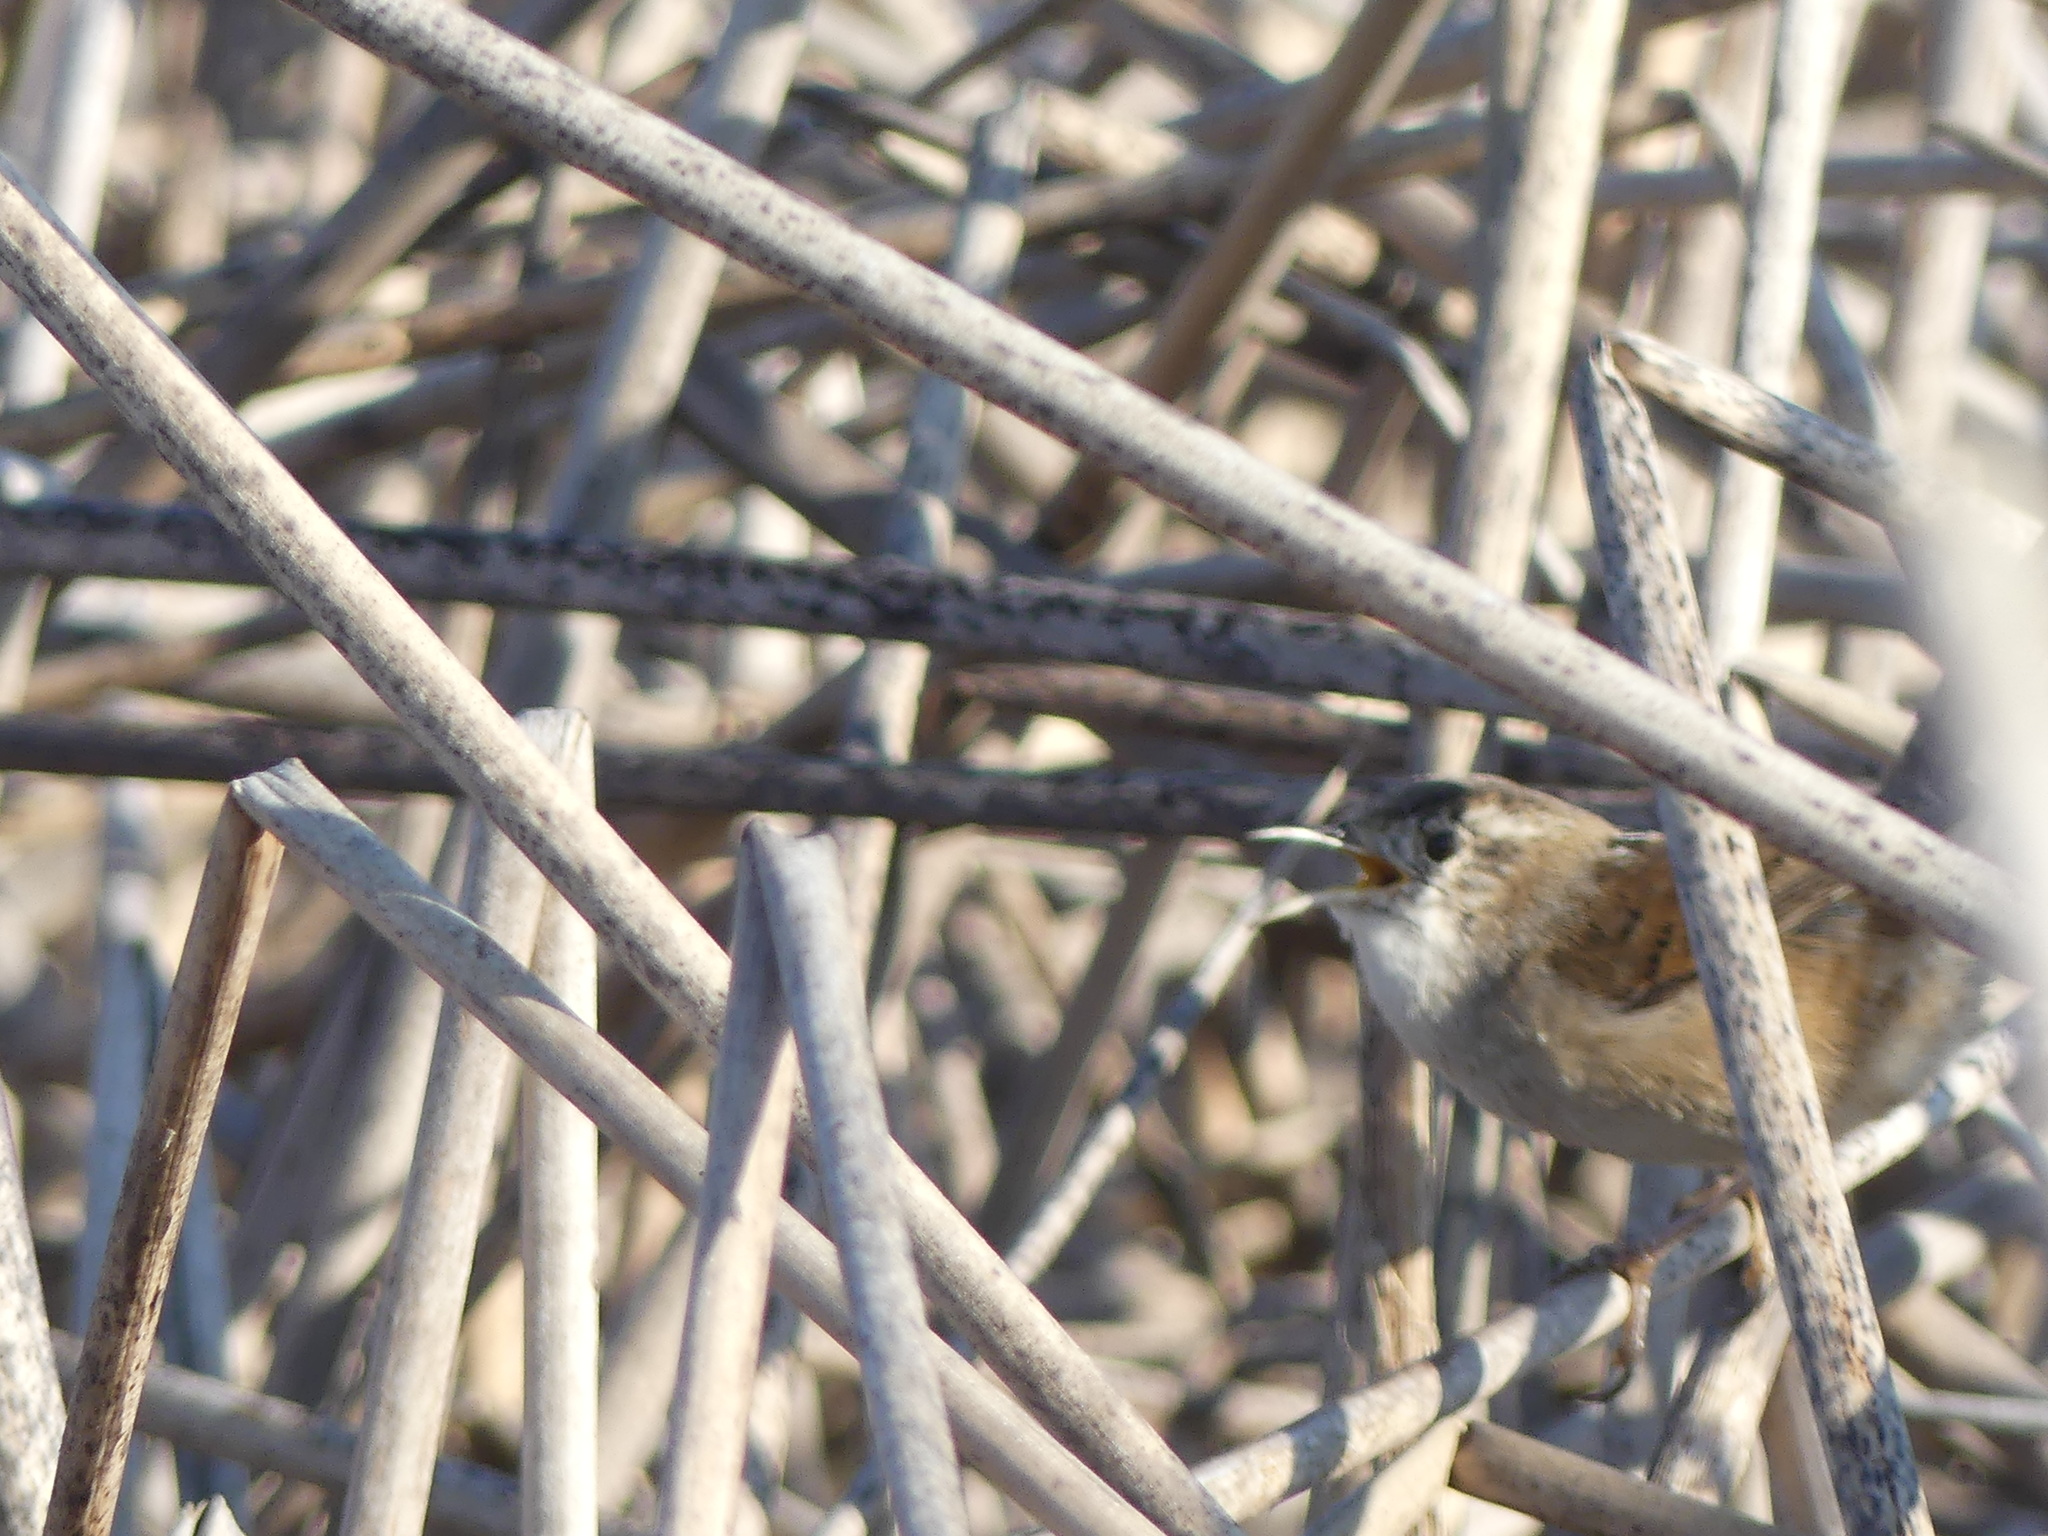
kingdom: Animalia
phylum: Chordata
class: Aves
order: Passeriformes
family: Troglodytidae
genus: Cistothorus
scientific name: Cistothorus palustris
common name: Marsh wren
